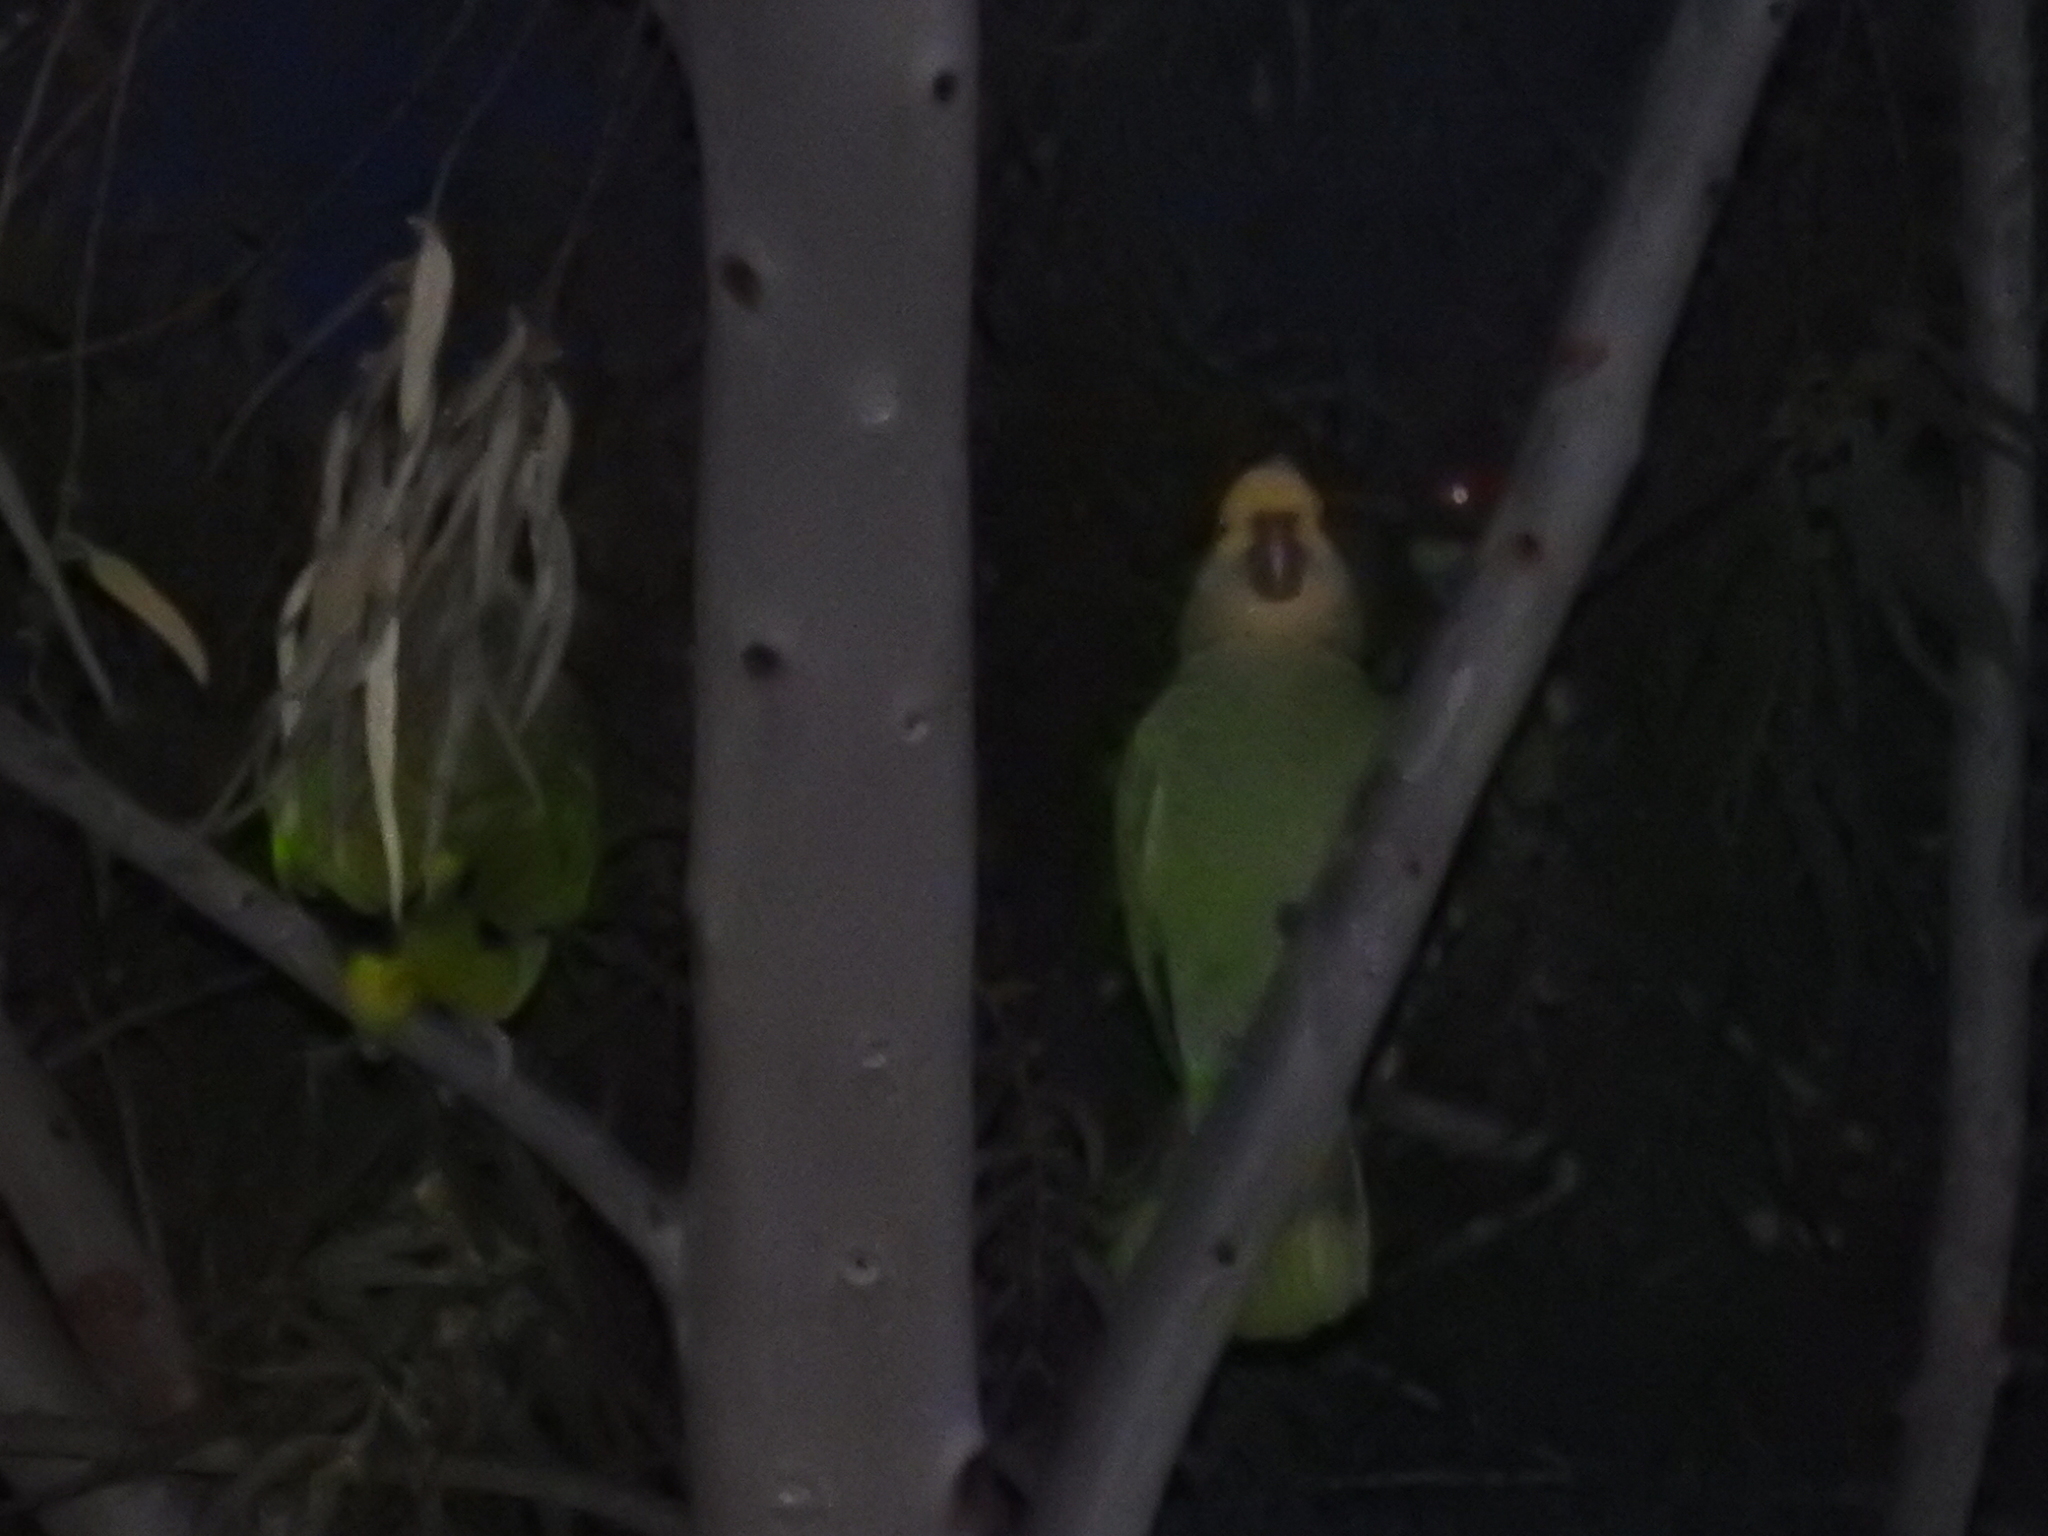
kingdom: Animalia
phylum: Chordata
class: Aves
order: Psittaciformes
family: Psittacidae
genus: Amazona
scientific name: Amazona oratrix
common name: Yellow-headed amazon
